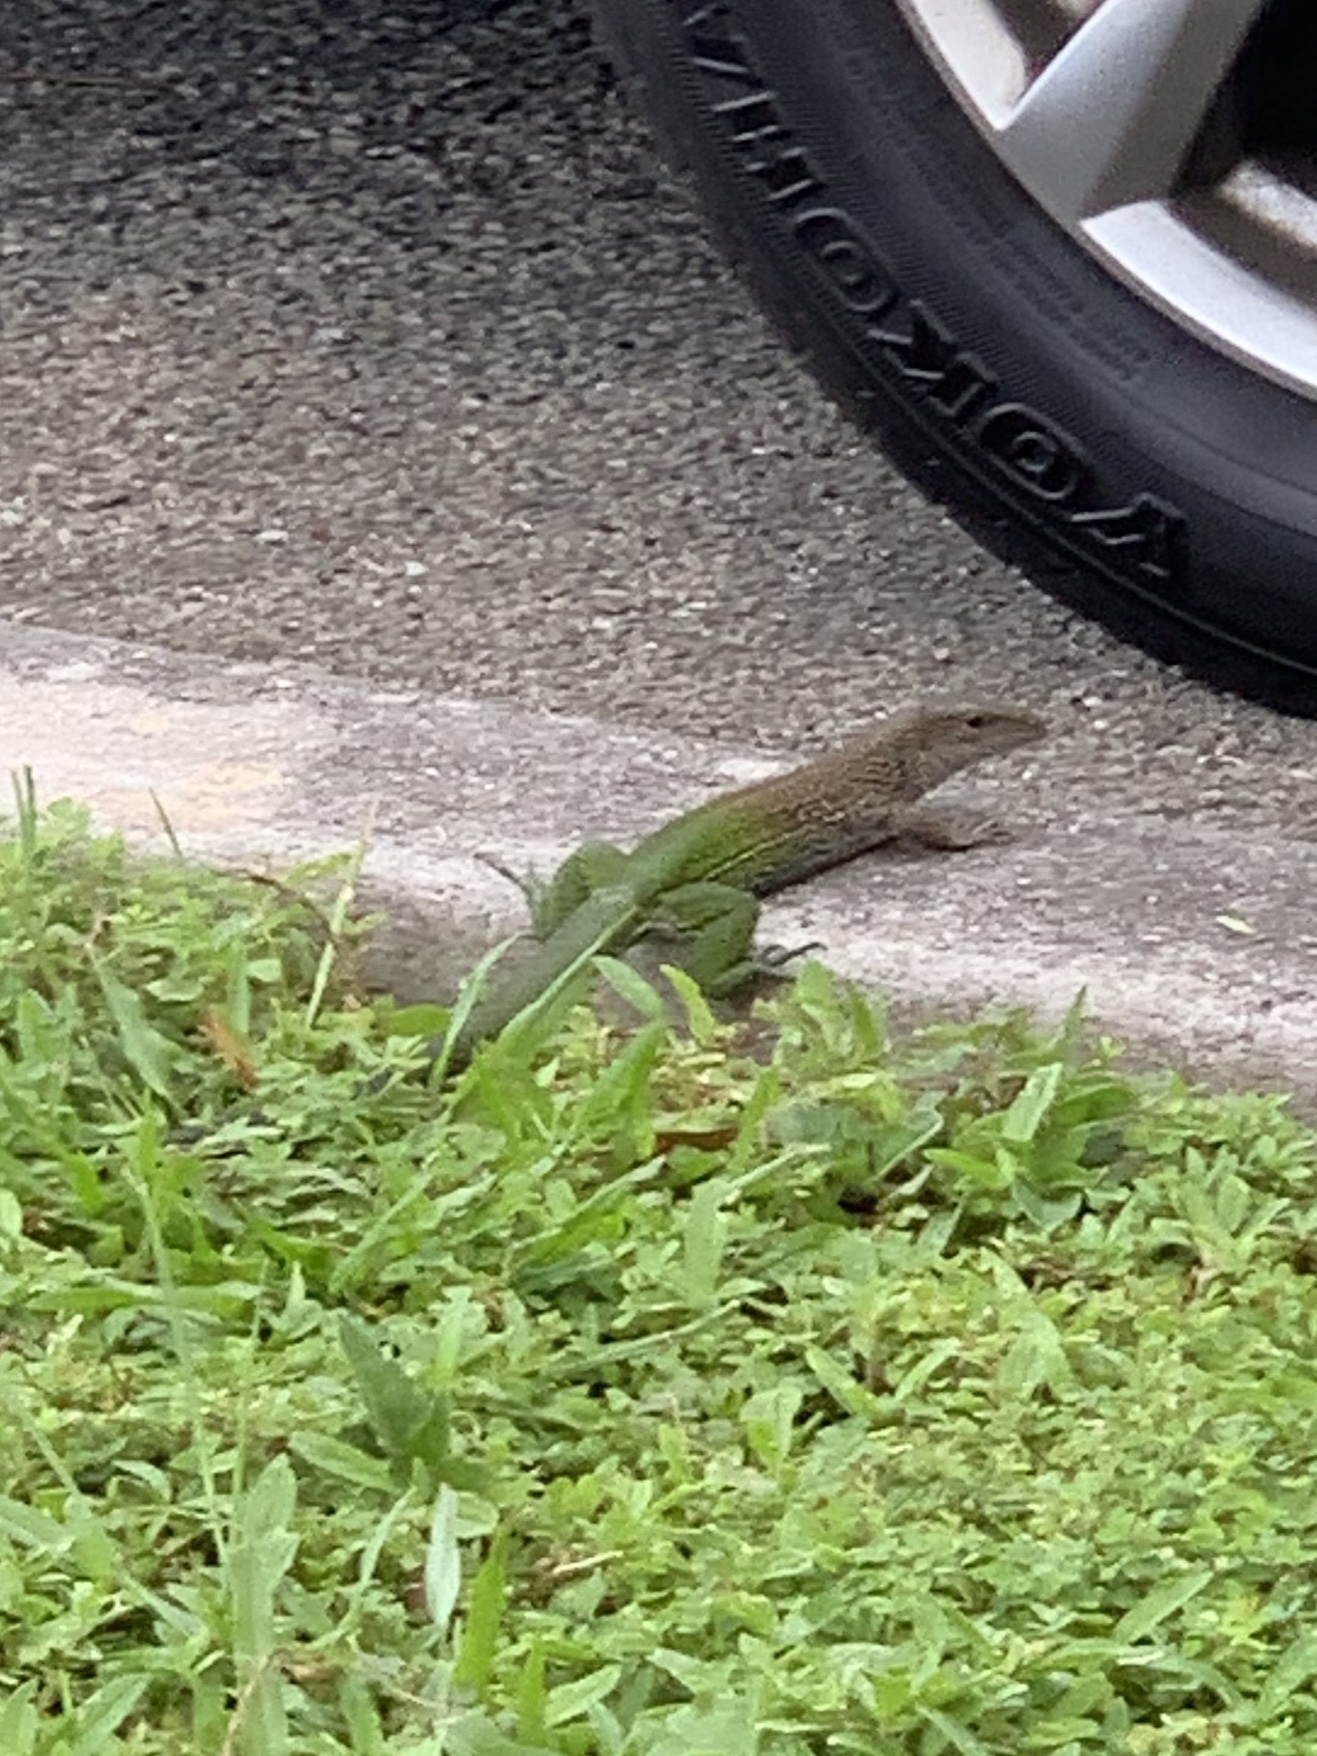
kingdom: Animalia
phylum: Chordata
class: Squamata
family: Teiidae
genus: Ameiva
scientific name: Ameiva ameiva
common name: Giant ameiva
